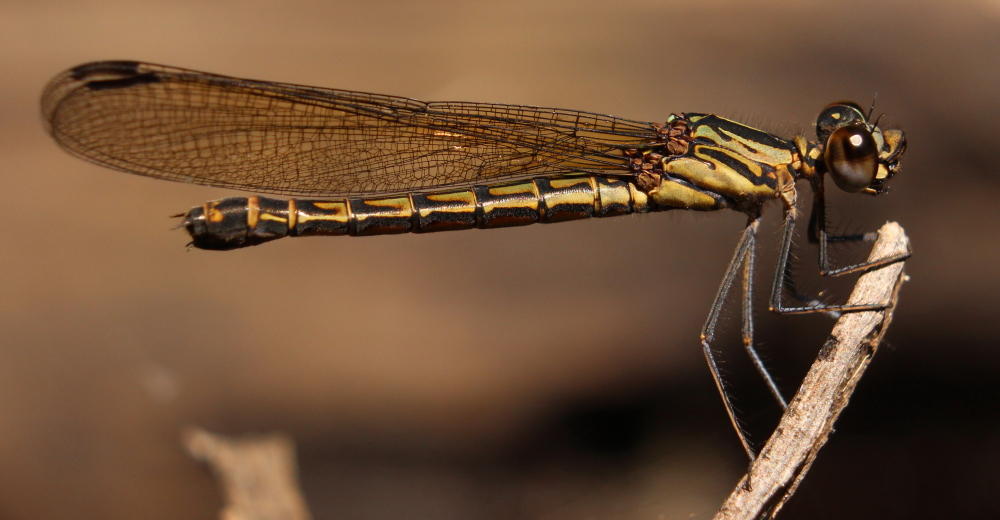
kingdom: Animalia
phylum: Arthropoda
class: Insecta
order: Odonata
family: Chlorocyphidae
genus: Platycypha
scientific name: Platycypha caligata
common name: Dancing jewel
